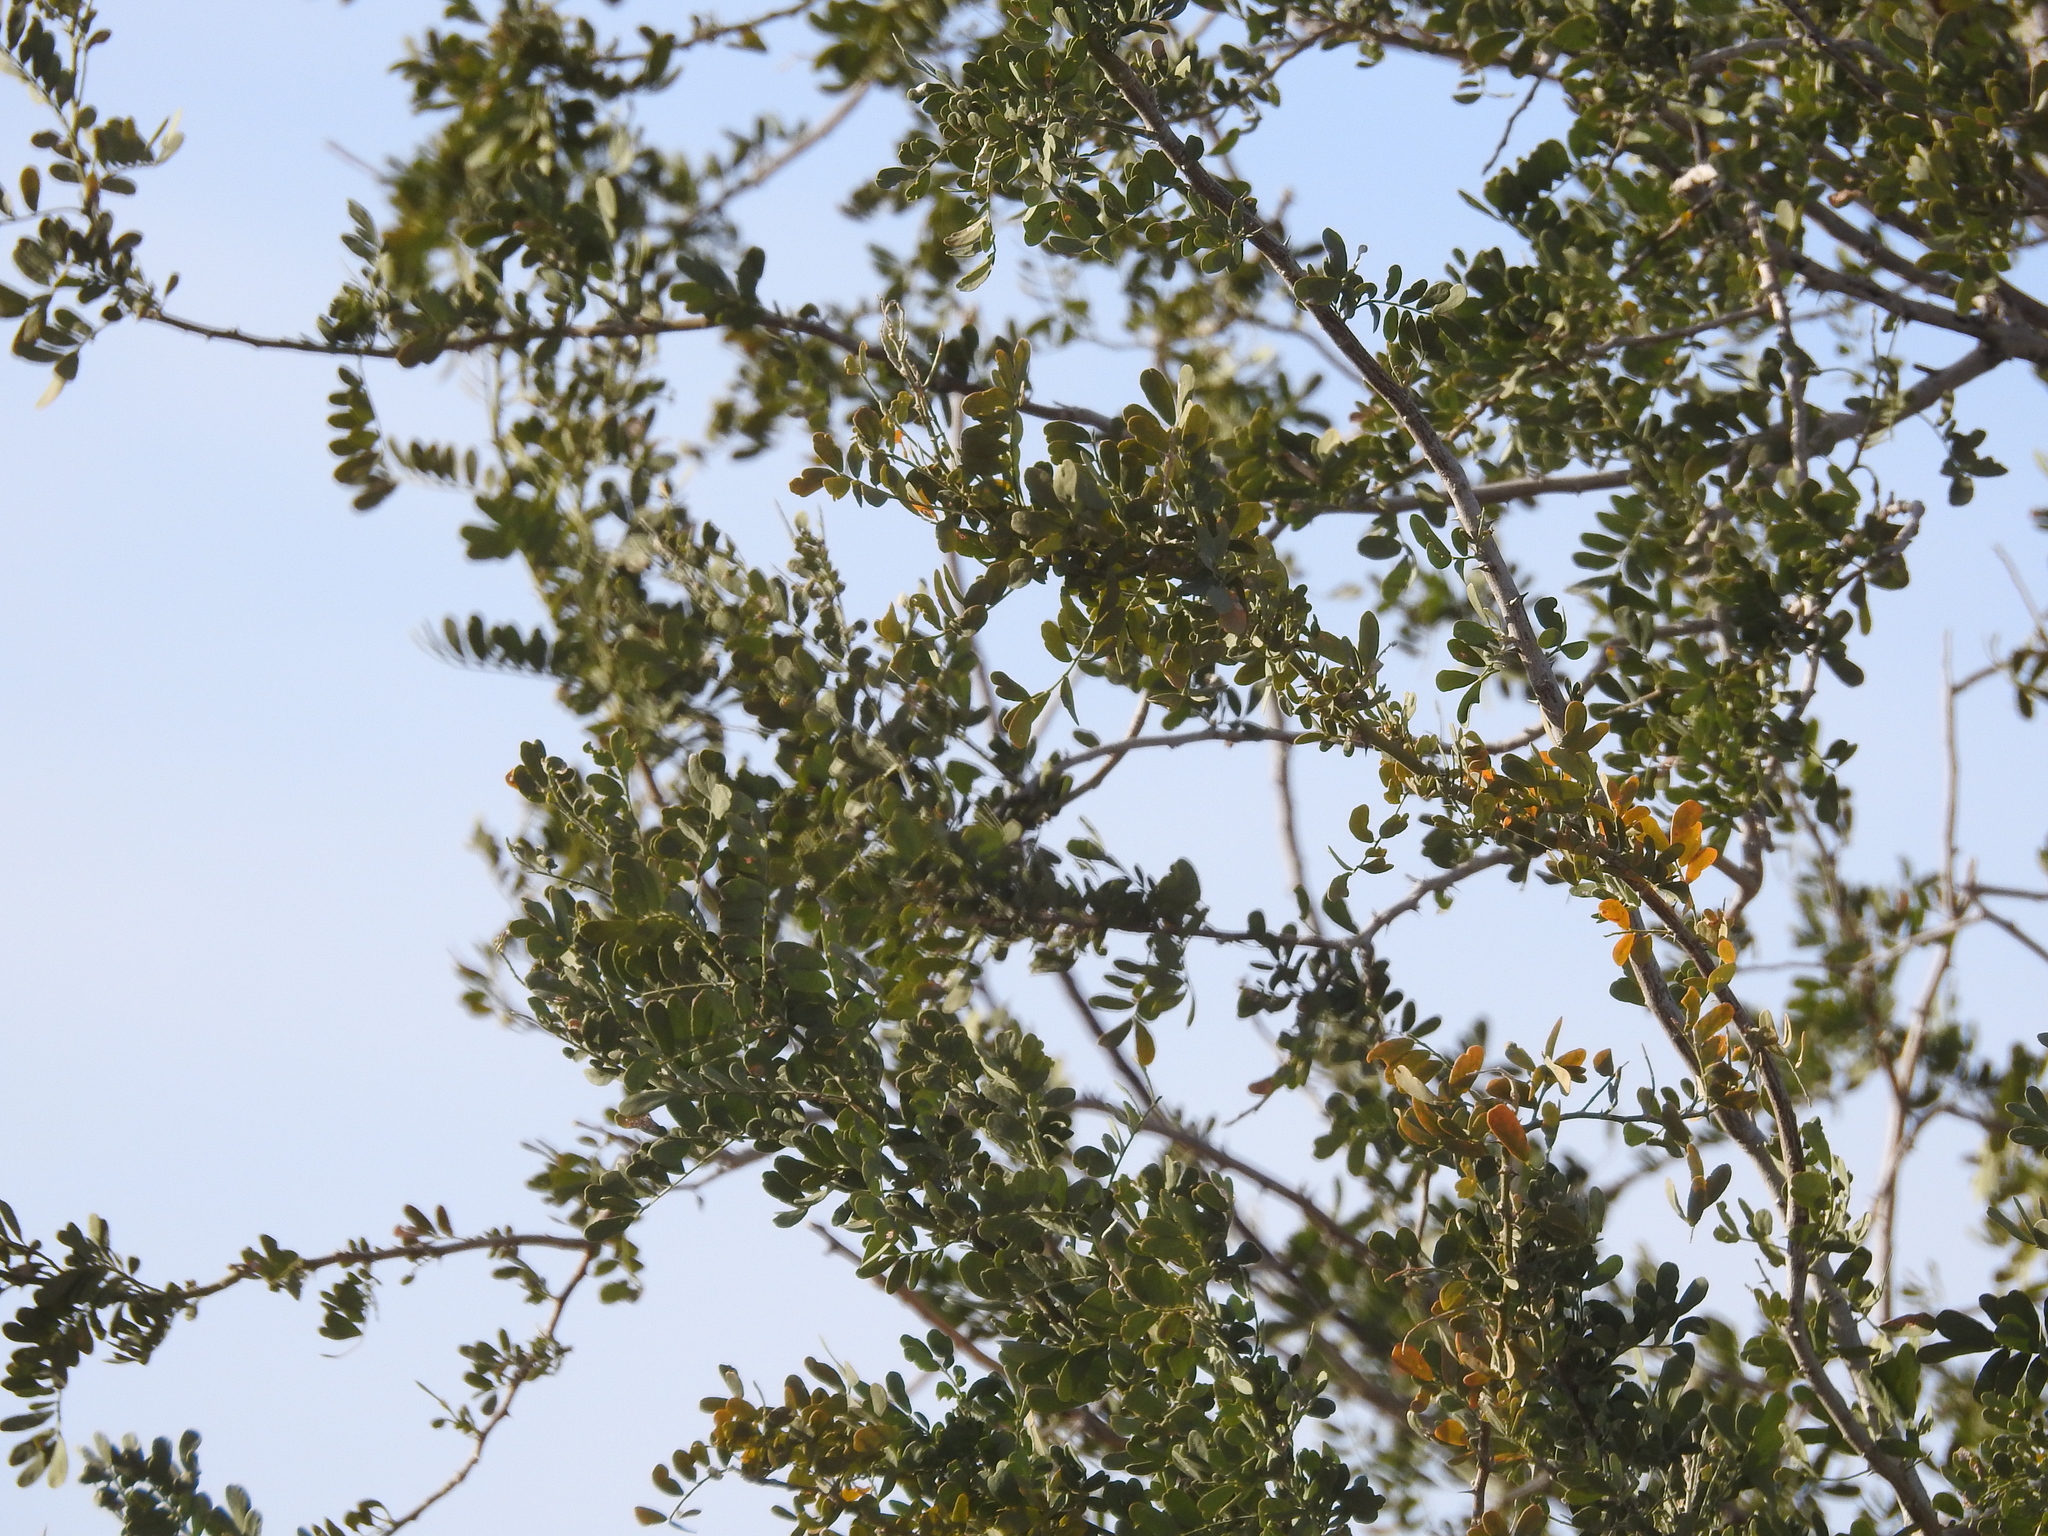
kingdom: Plantae
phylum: Tracheophyta
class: Magnoliopsida
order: Fabales
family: Fabaceae
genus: Olneya
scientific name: Olneya tesota
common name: Desert ironwood
